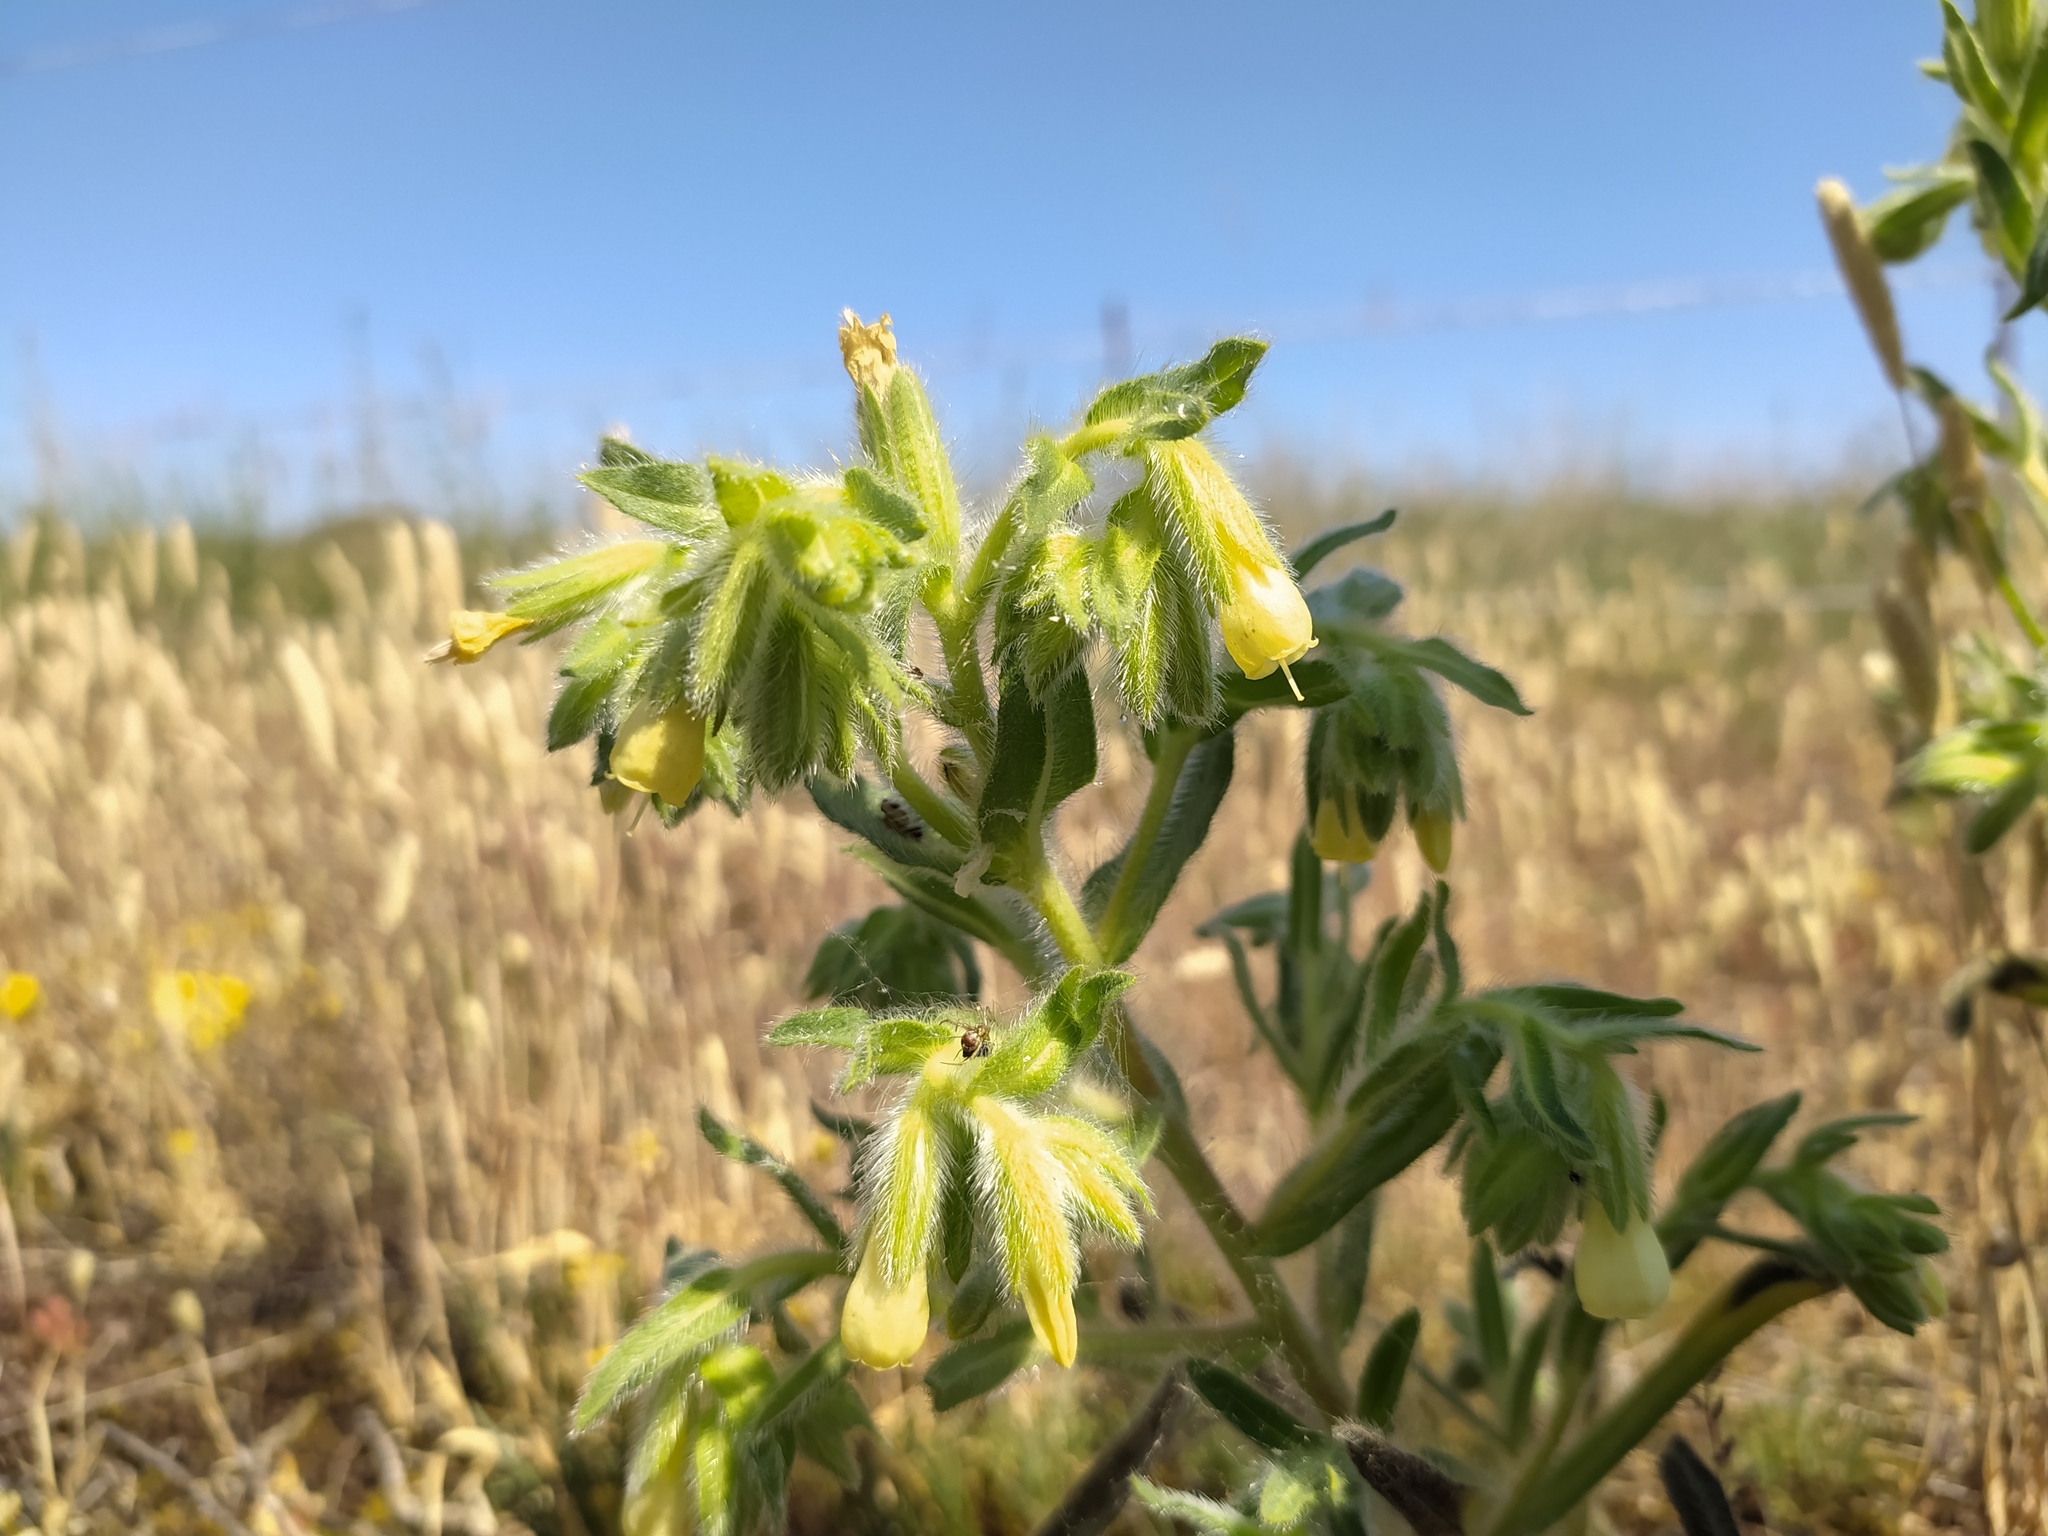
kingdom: Plantae
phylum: Tracheophyta
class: Magnoliopsida
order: Boraginales
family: Boraginaceae
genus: Onosma
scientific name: Onosma arenaria
